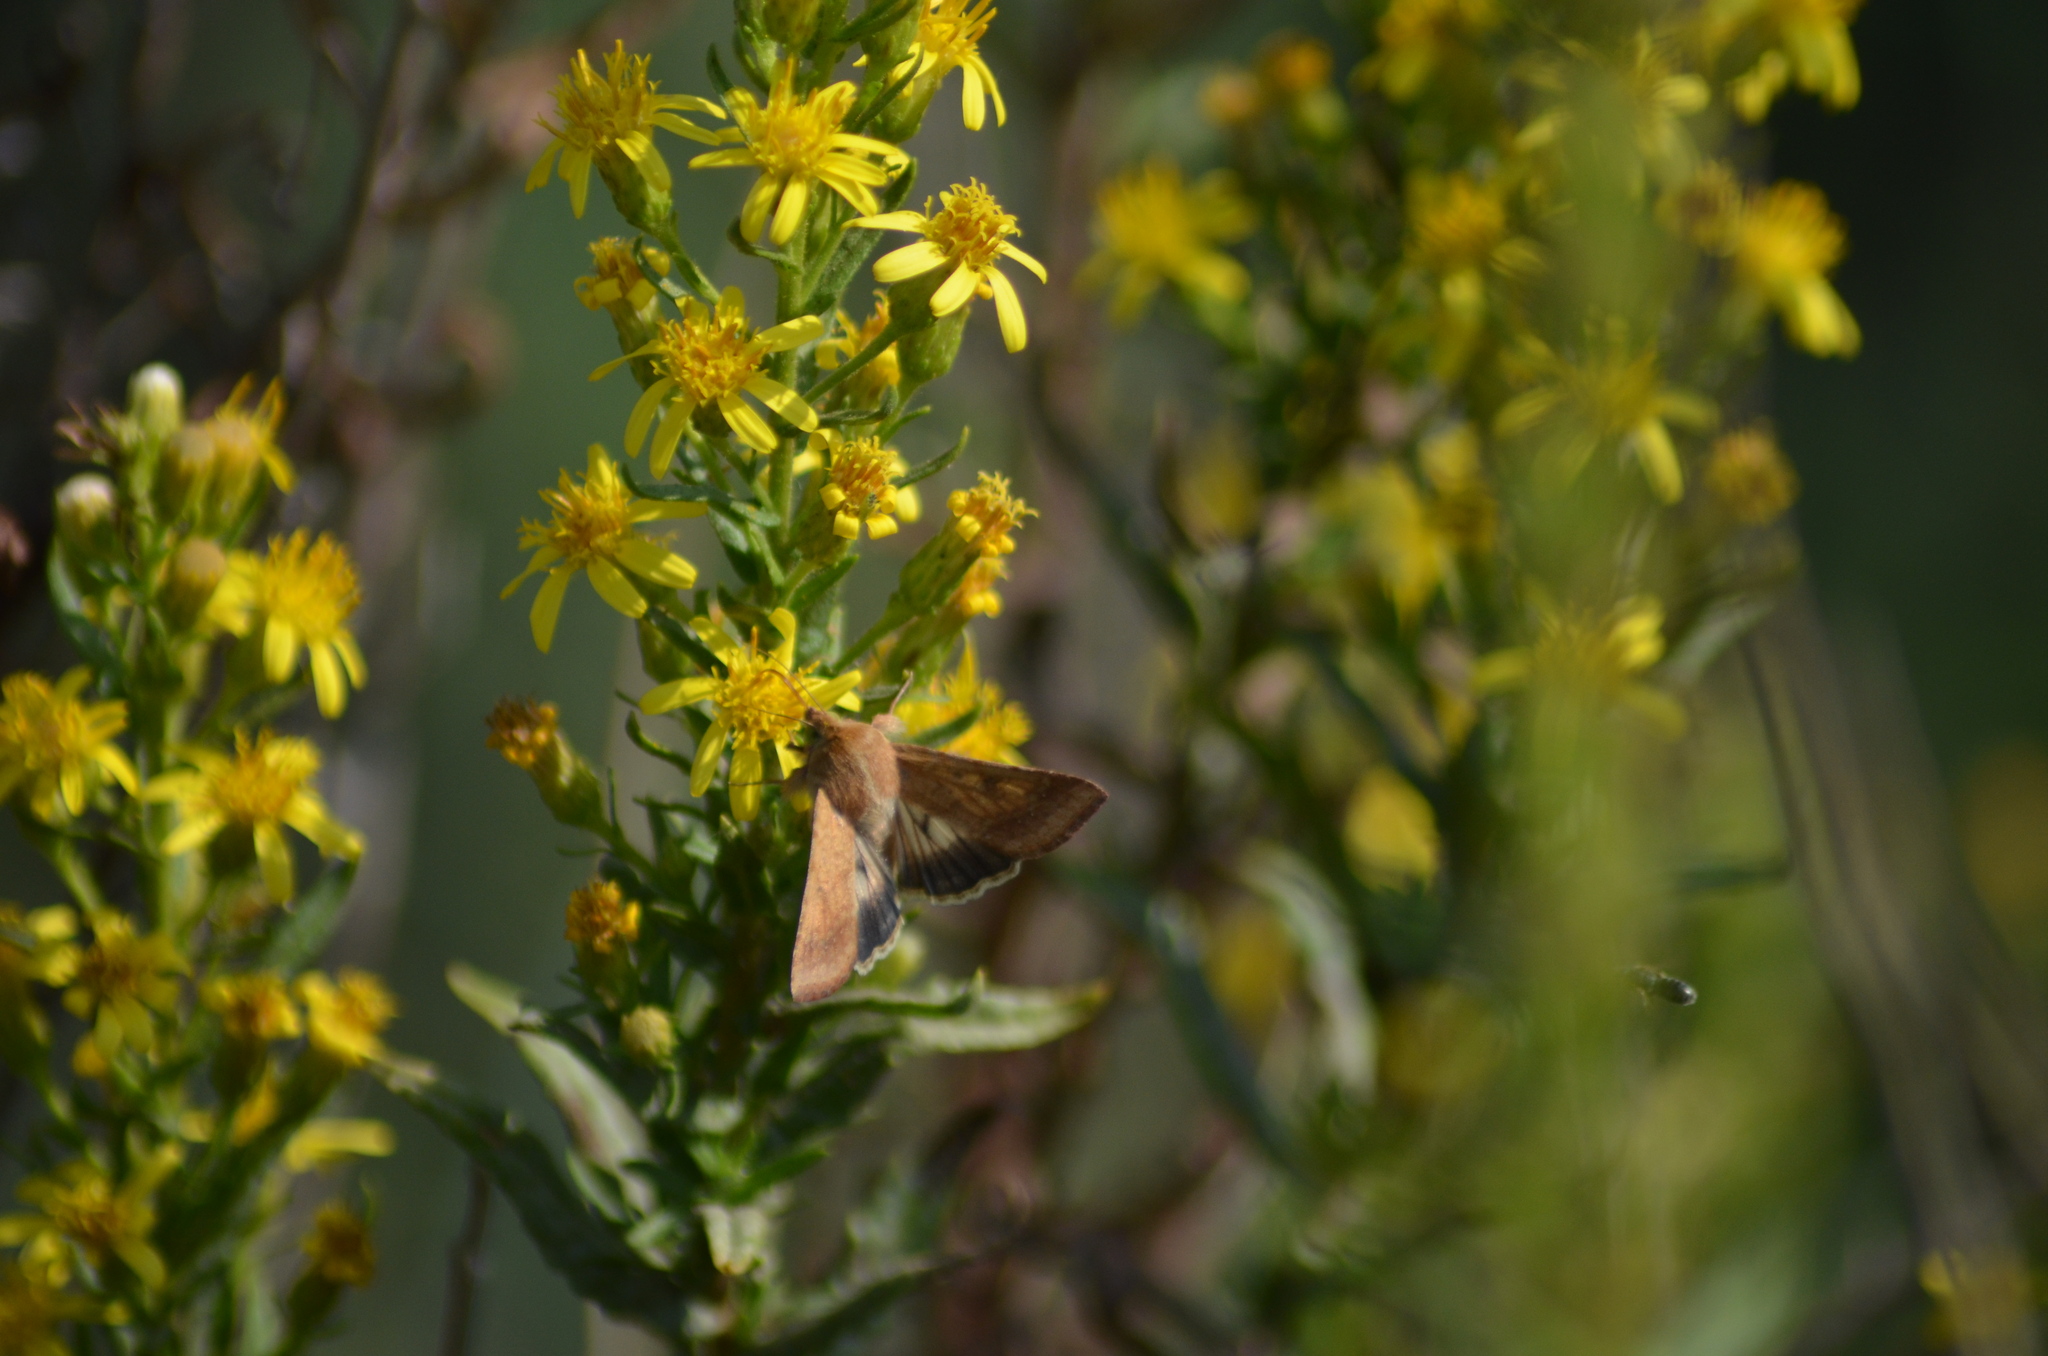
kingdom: Animalia
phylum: Arthropoda
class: Insecta
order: Lepidoptera
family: Noctuidae
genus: Helicoverpa
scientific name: Helicoverpa armigera
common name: Cotton bollworm
